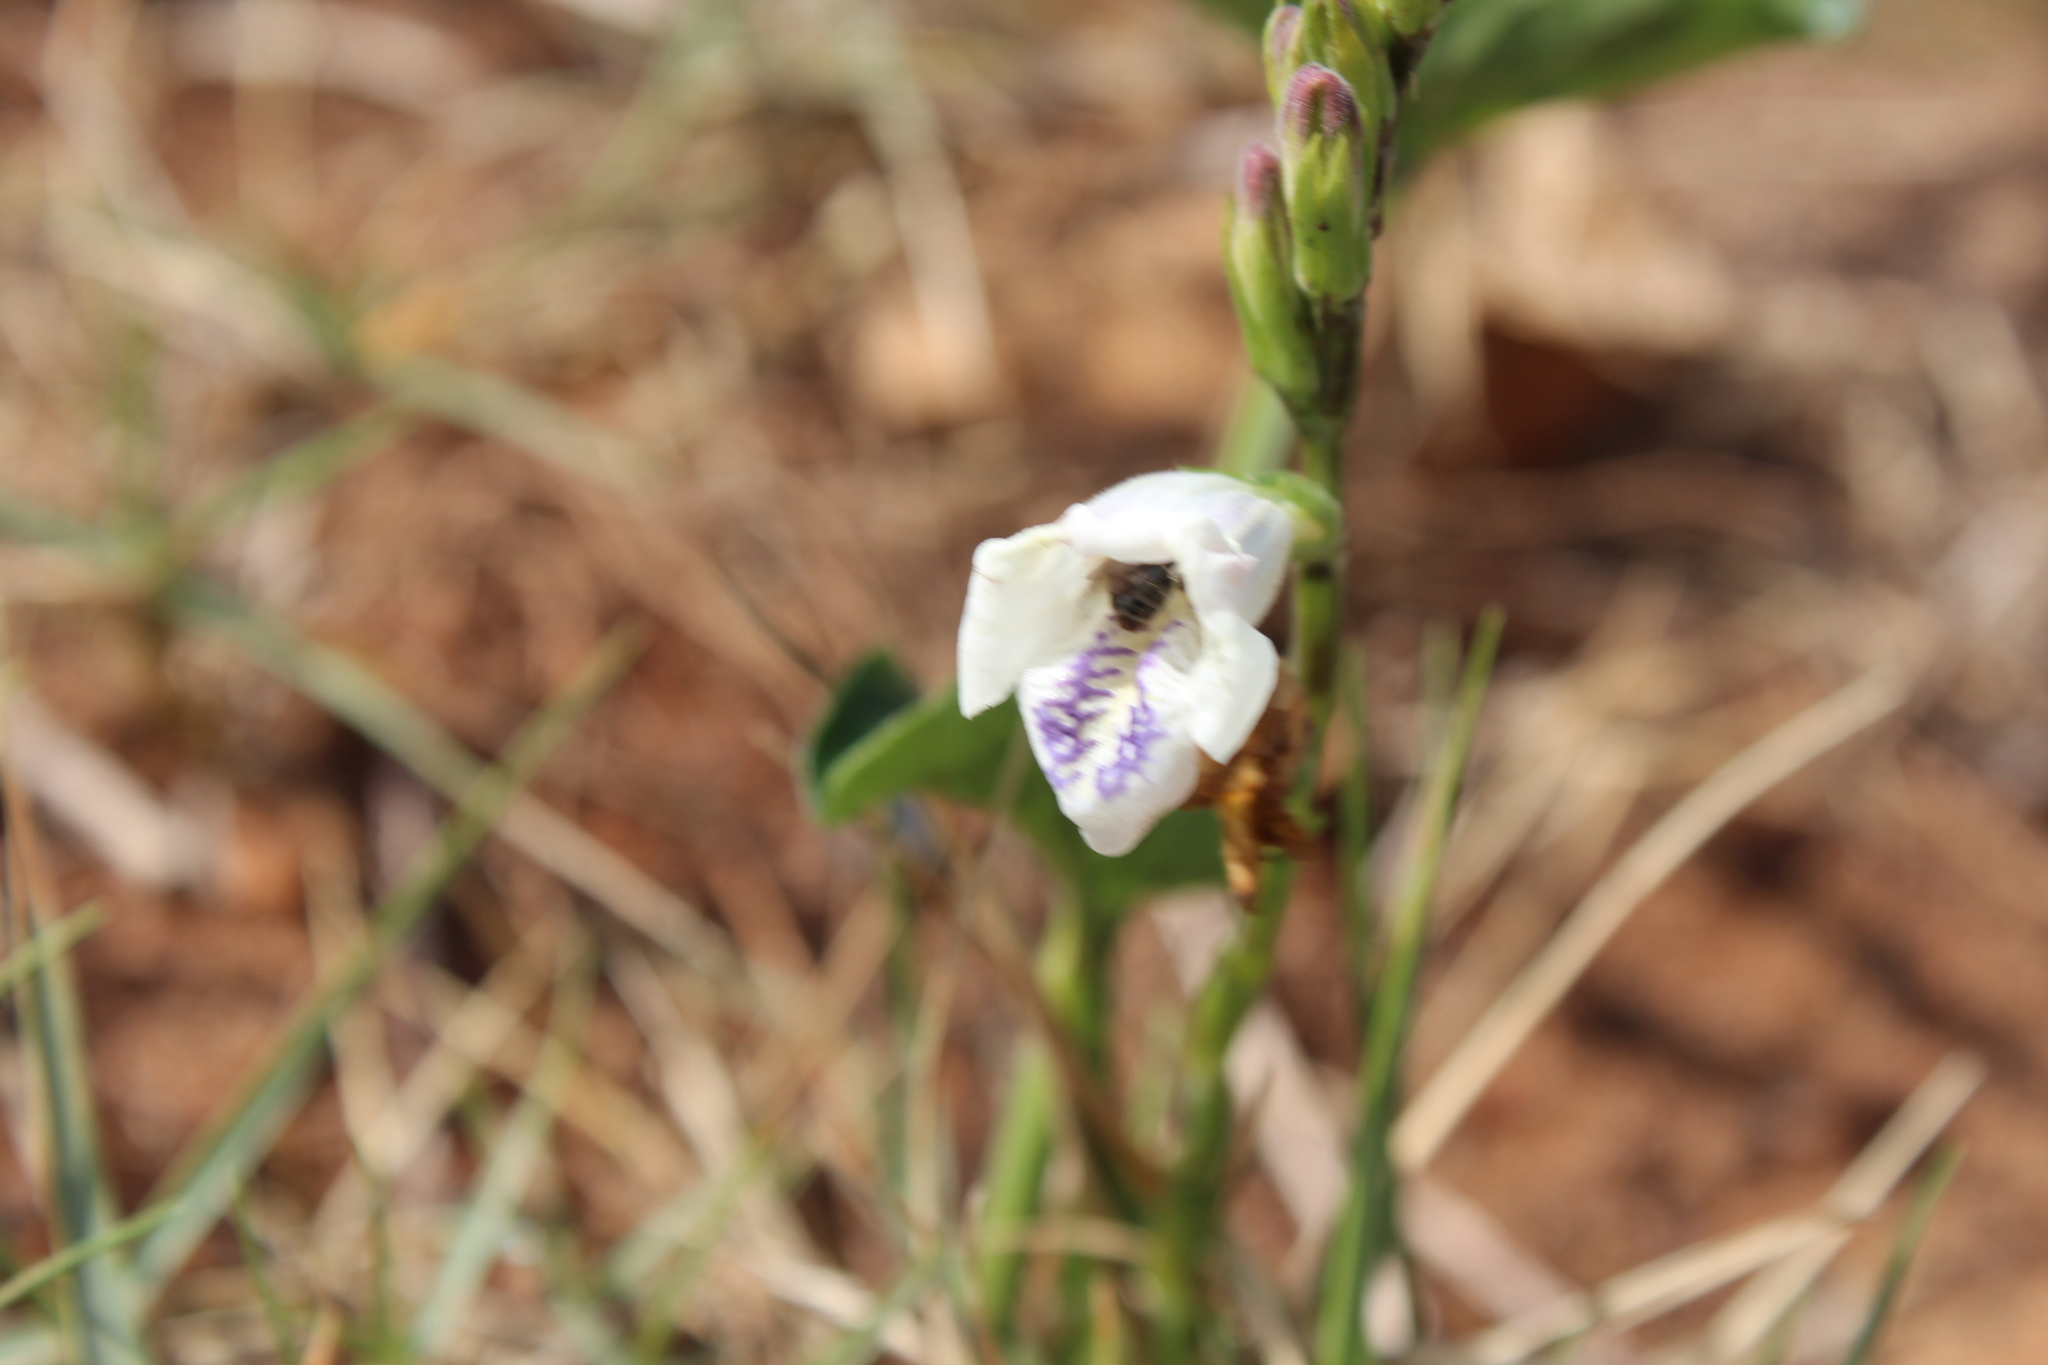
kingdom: Plantae
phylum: Tracheophyta
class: Magnoliopsida
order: Lamiales
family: Acanthaceae
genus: Asystasia
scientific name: Asystasia intrusa
